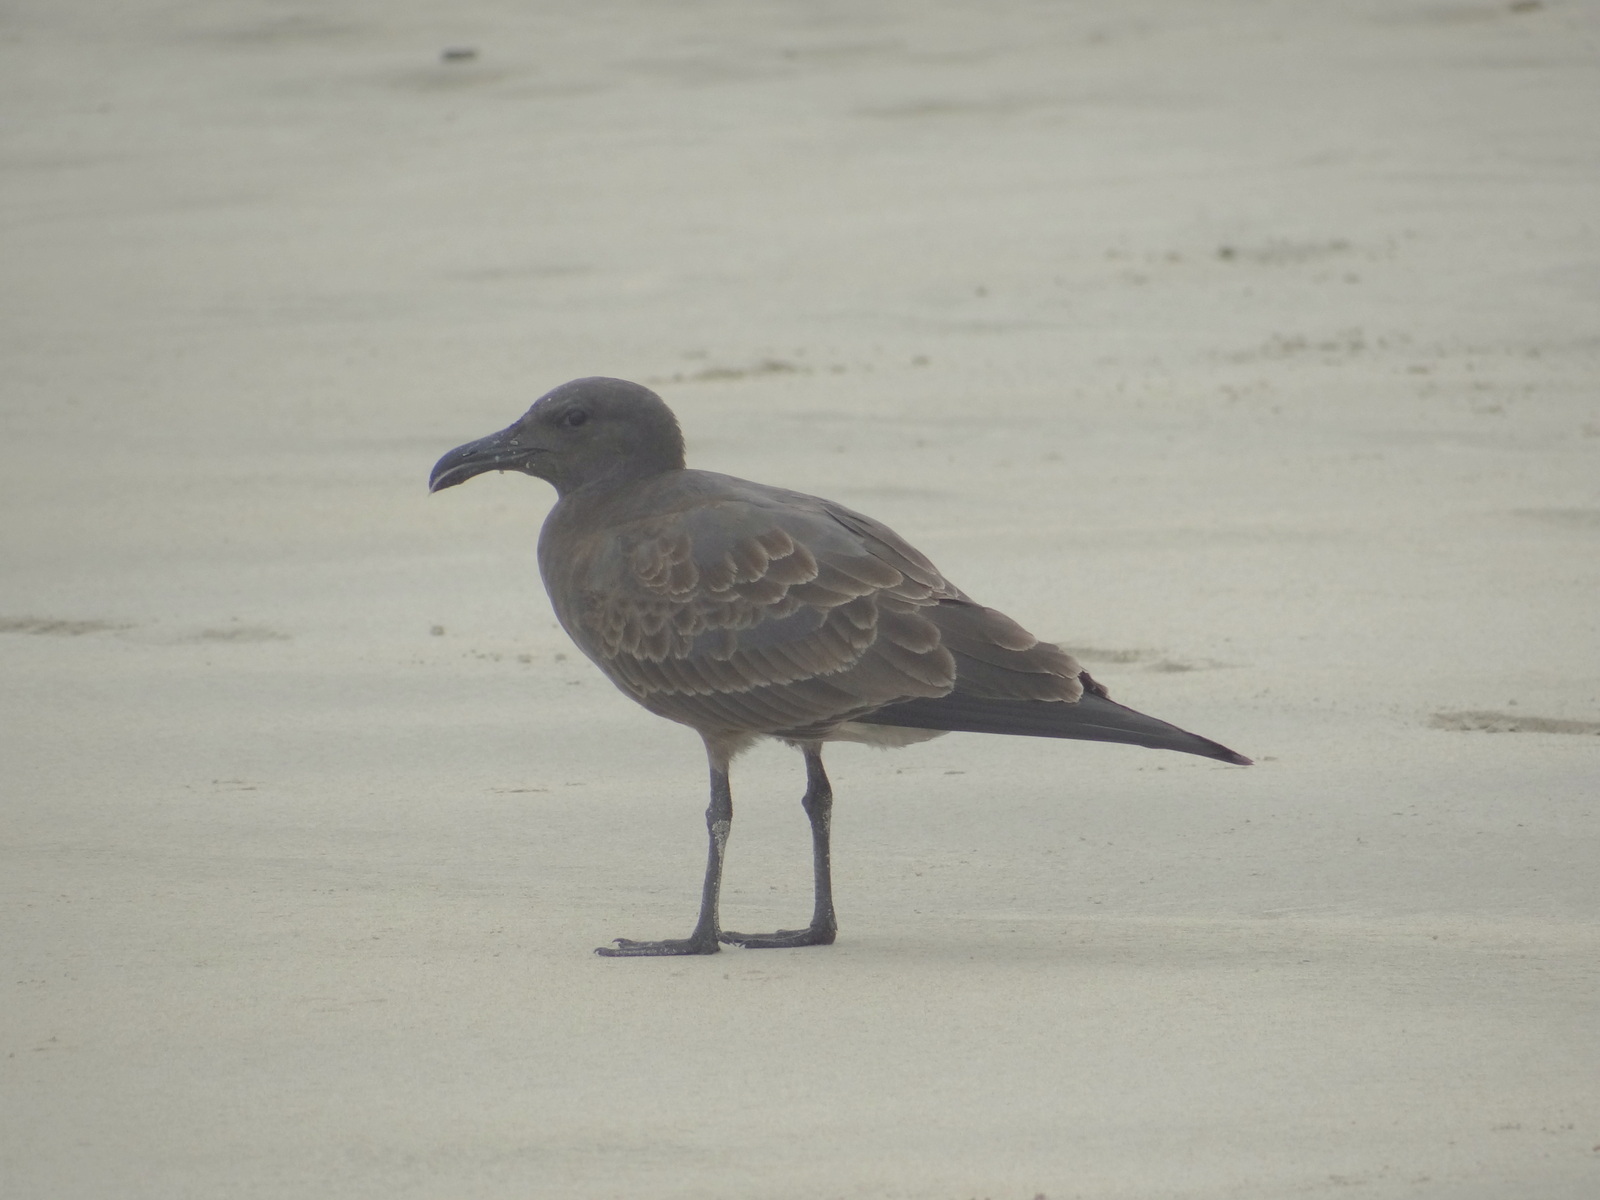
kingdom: Animalia
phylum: Chordata
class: Aves
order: Charadriiformes
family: Laridae
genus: Leucophaeus
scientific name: Leucophaeus fuliginosus
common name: Lava gull
